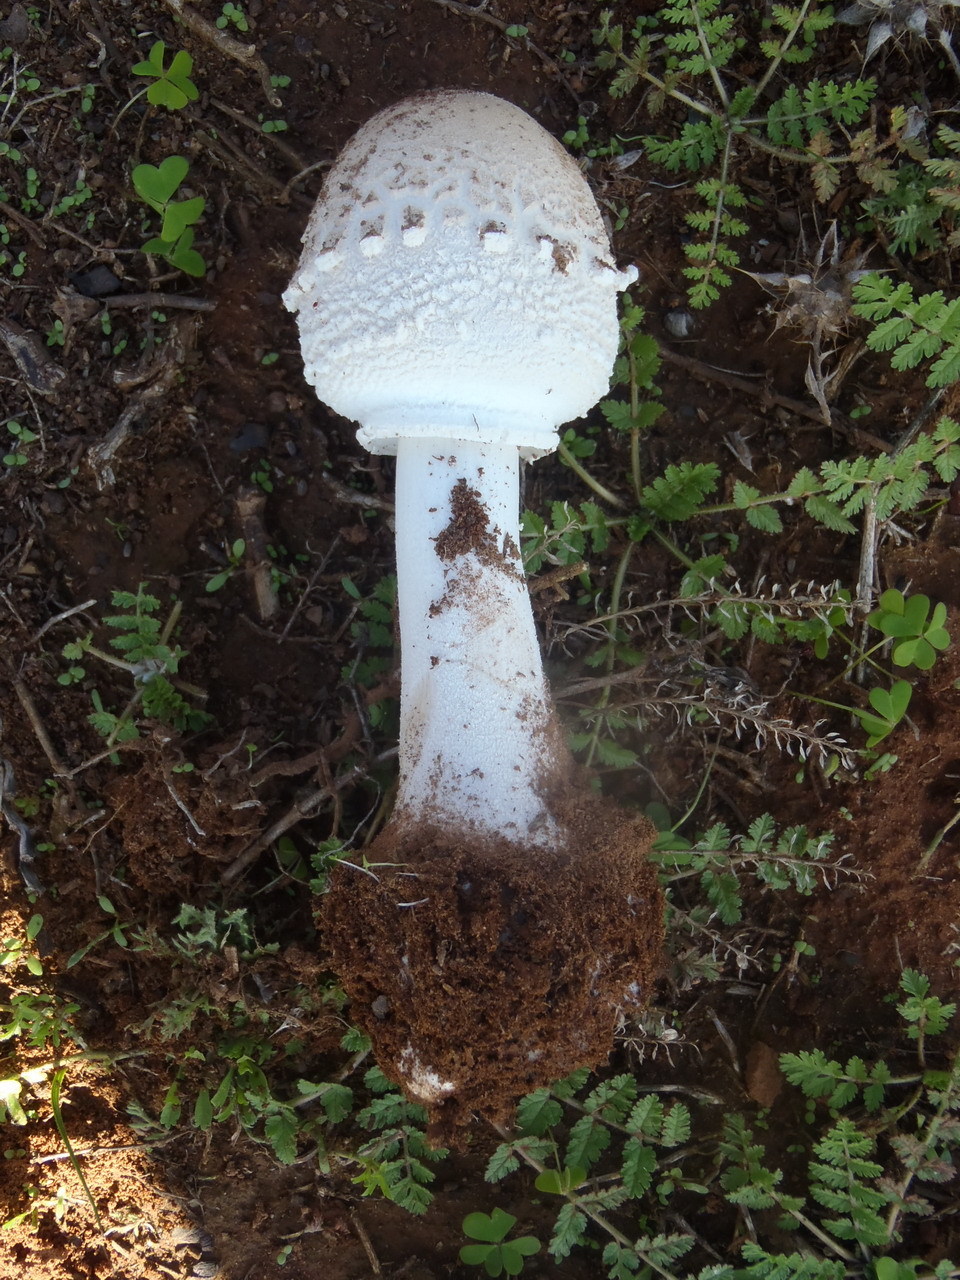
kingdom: Fungi
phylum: Basidiomycota
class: Agaricomycetes
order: Agaricales
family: Agaricaceae
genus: Macrolepiota
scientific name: Macrolepiota zeyheri
